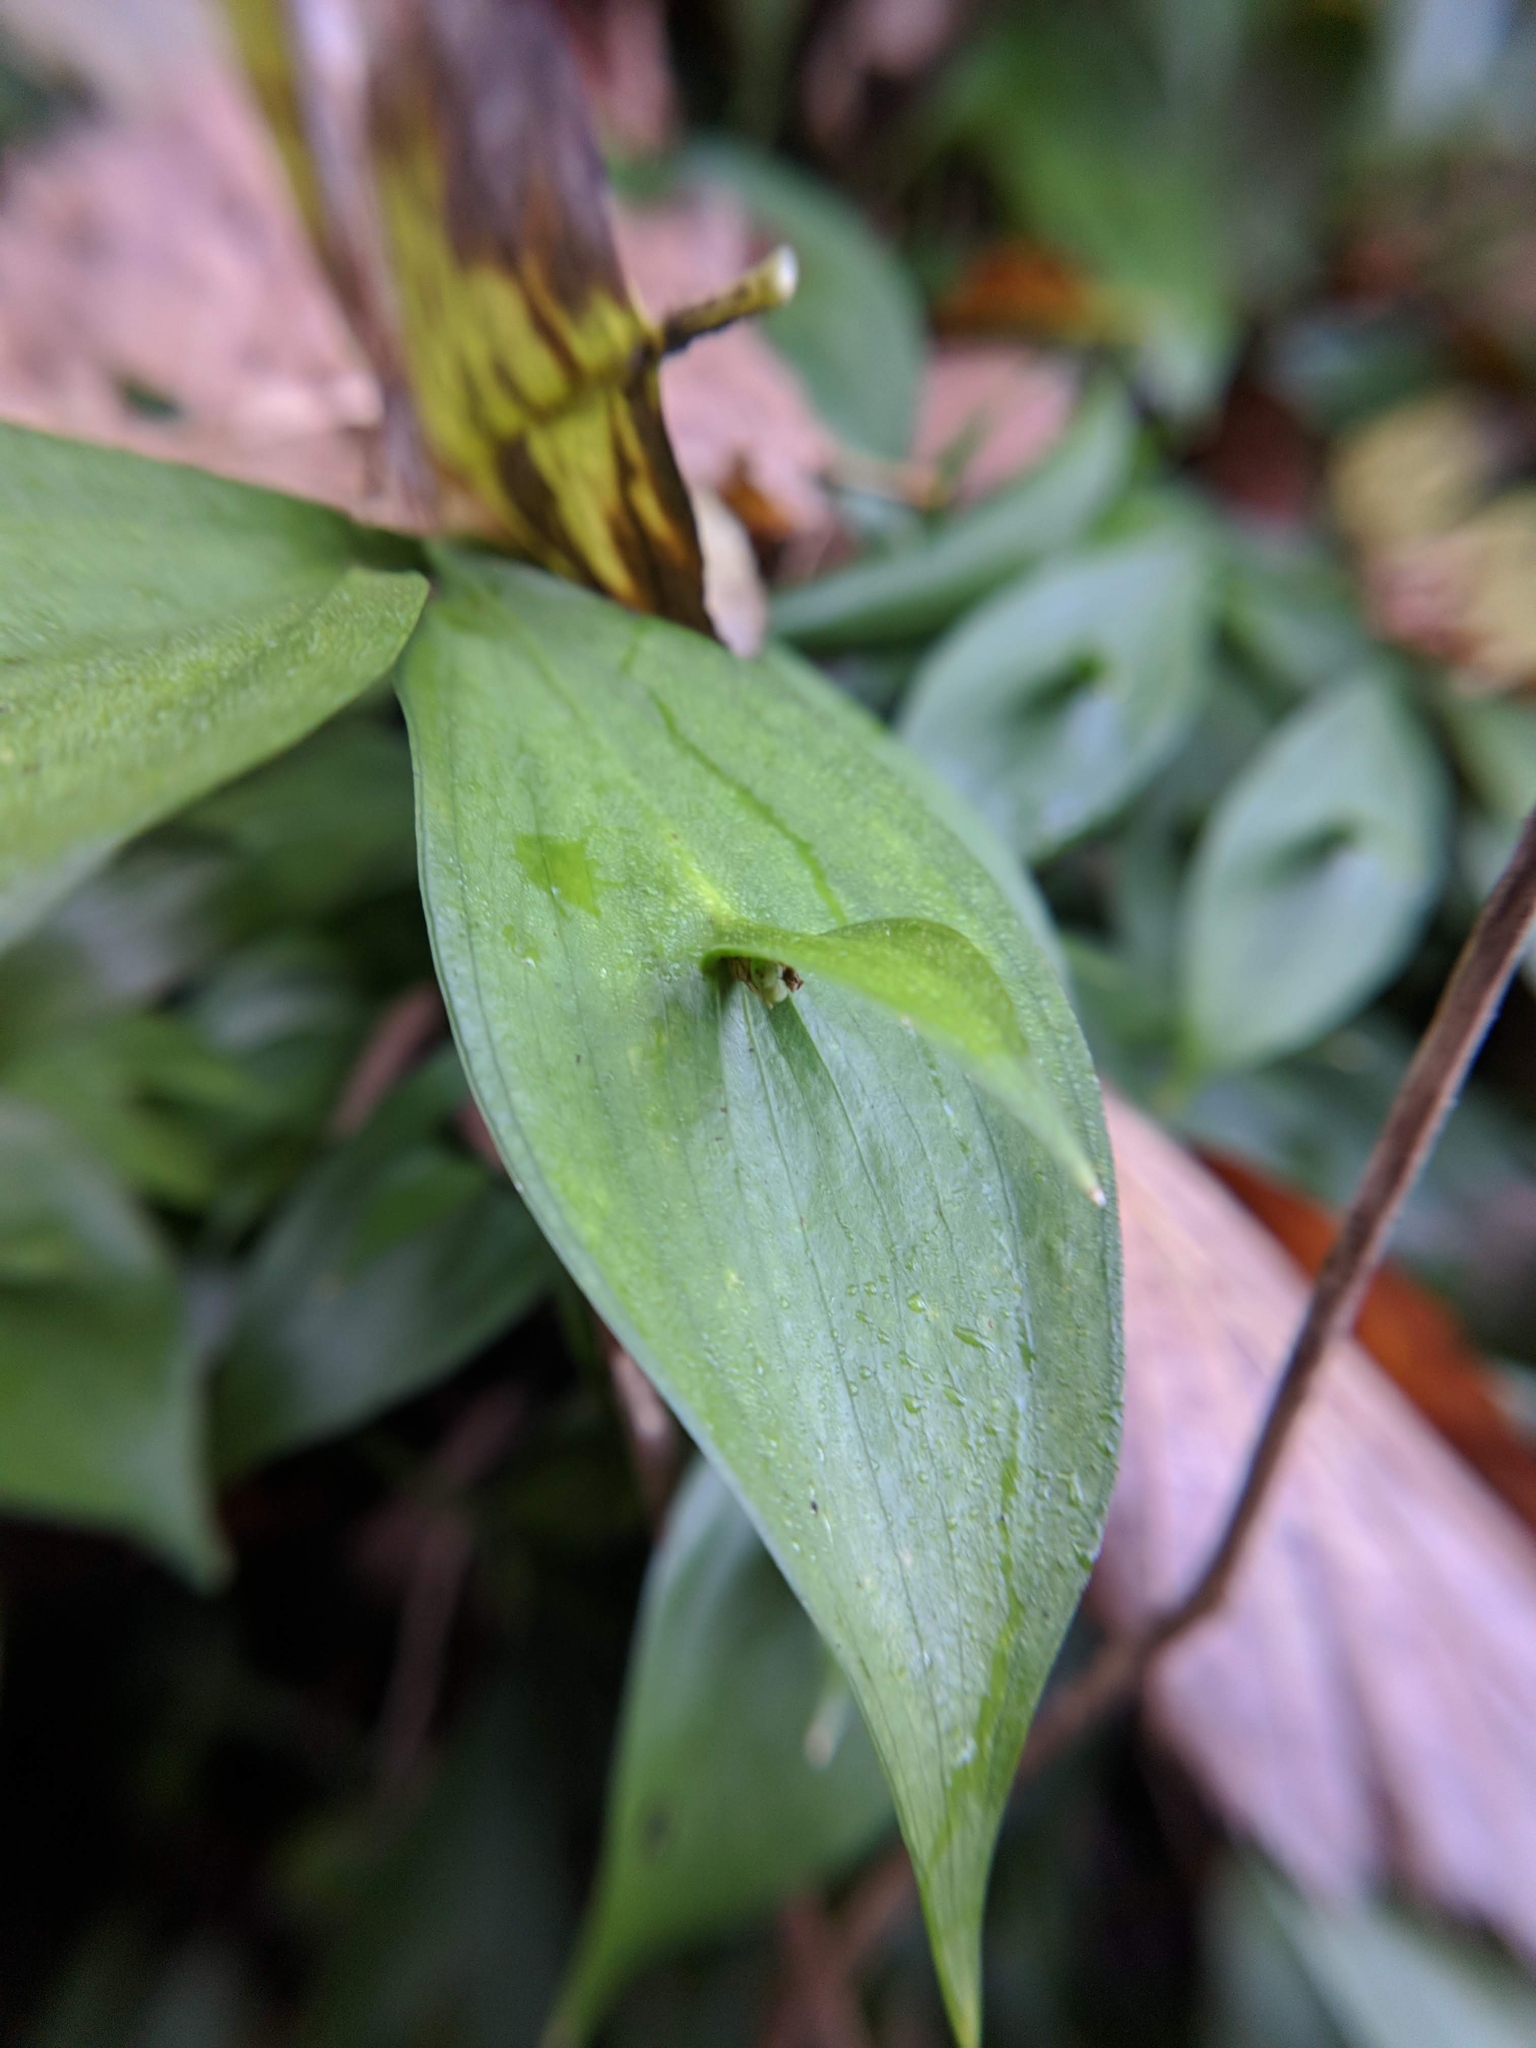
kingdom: Plantae
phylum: Tracheophyta
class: Liliopsida
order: Asparagales
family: Asparagaceae
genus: Ruscus
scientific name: Ruscus hypoglossum
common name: Spineless butcher's-broom
